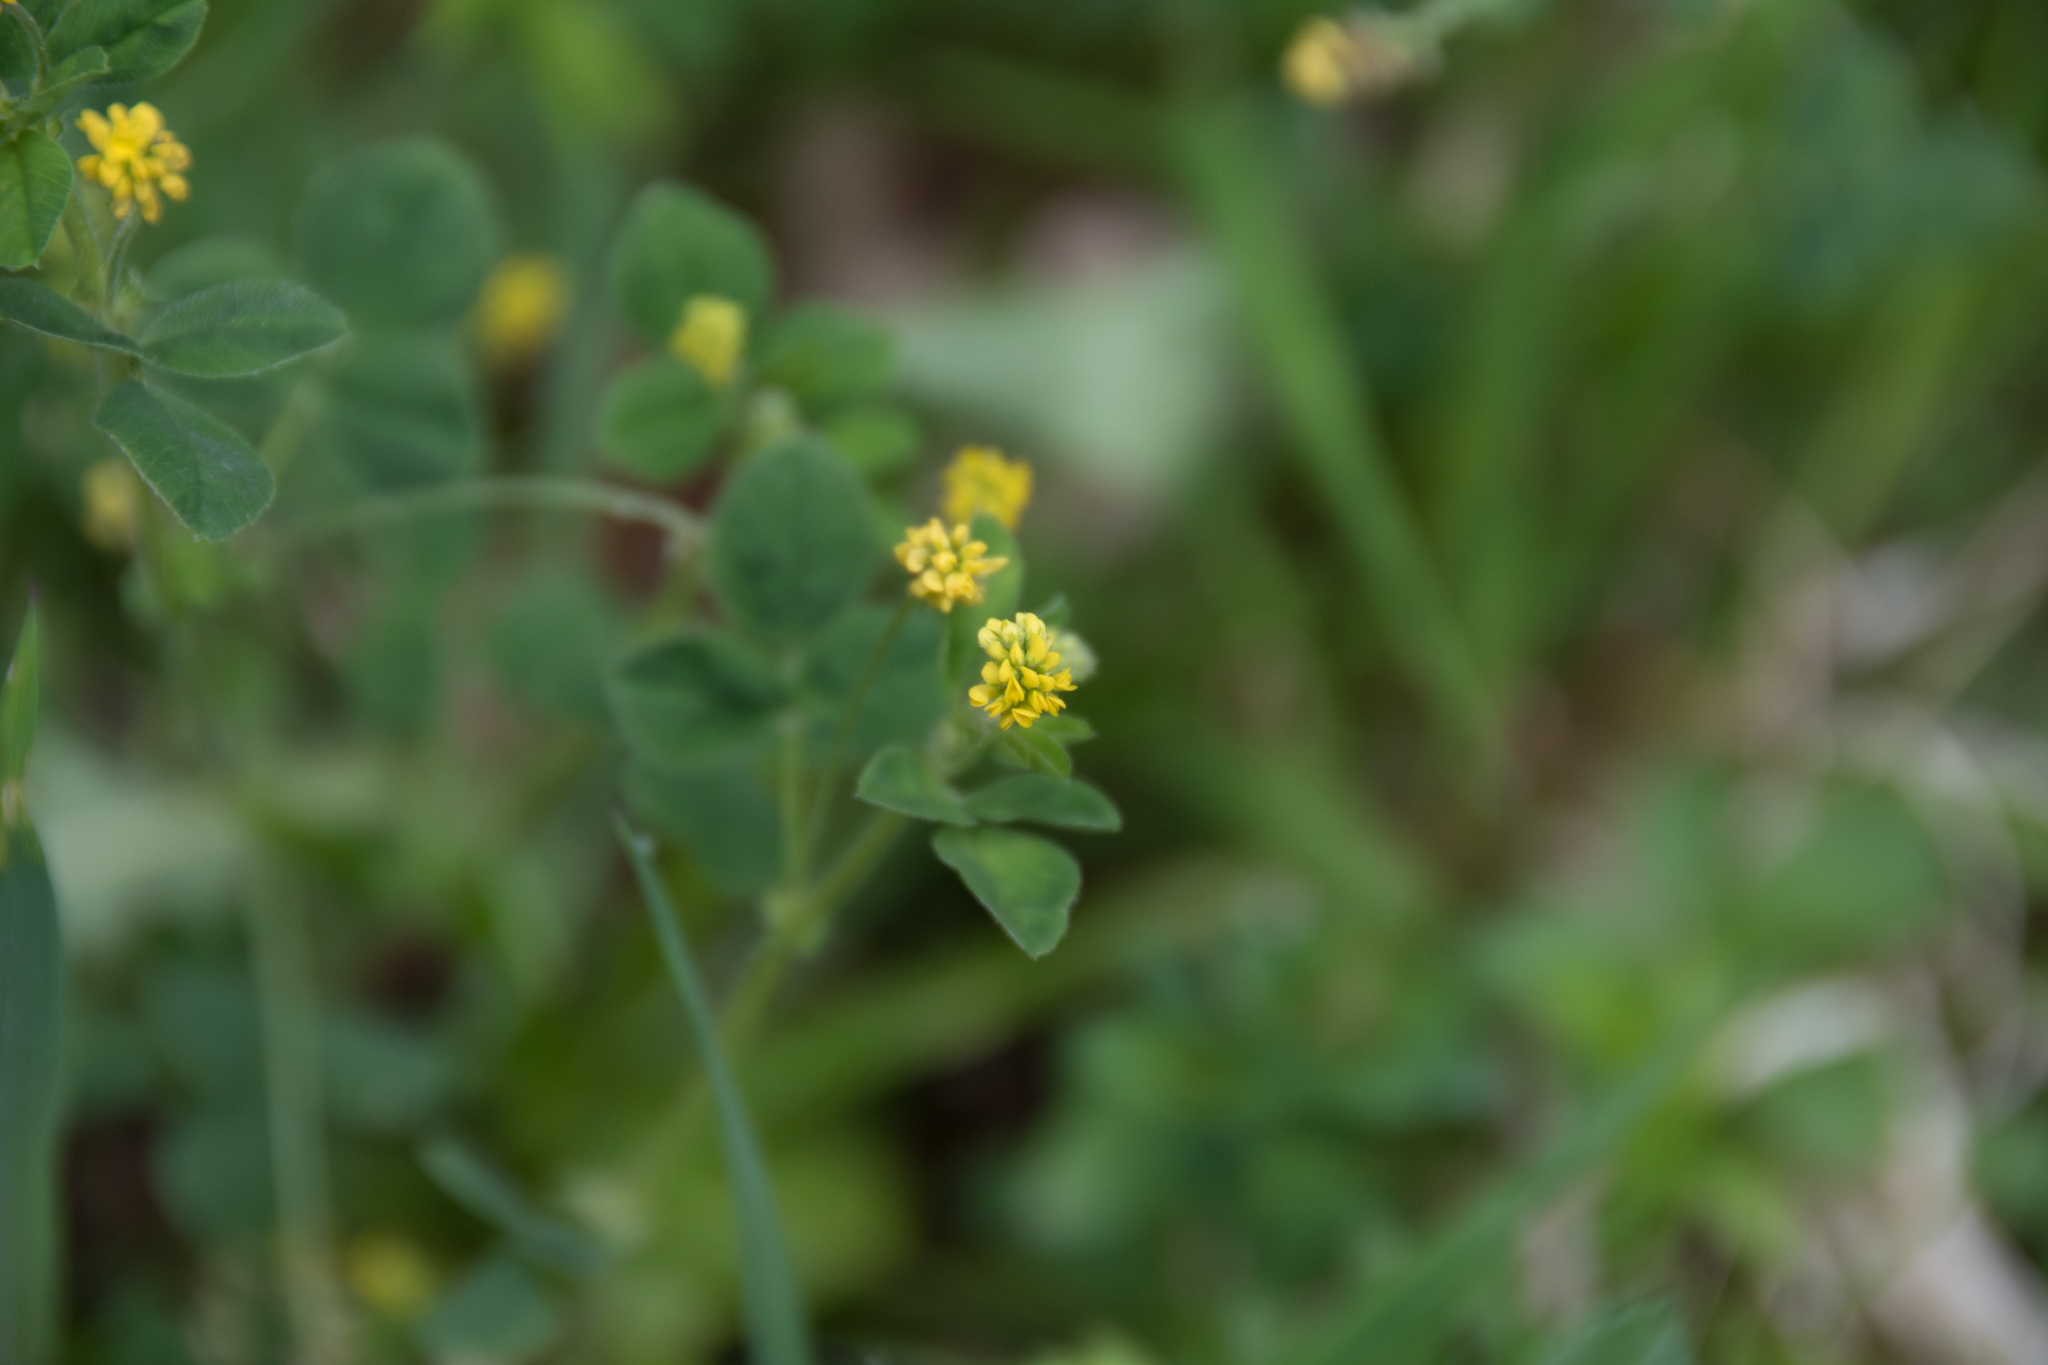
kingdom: Plantae
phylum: Tracheophyta
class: Magnoliopsida
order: Fabales
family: Fabaceae
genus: Medicago
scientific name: Medicago lupulina
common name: Black medick
